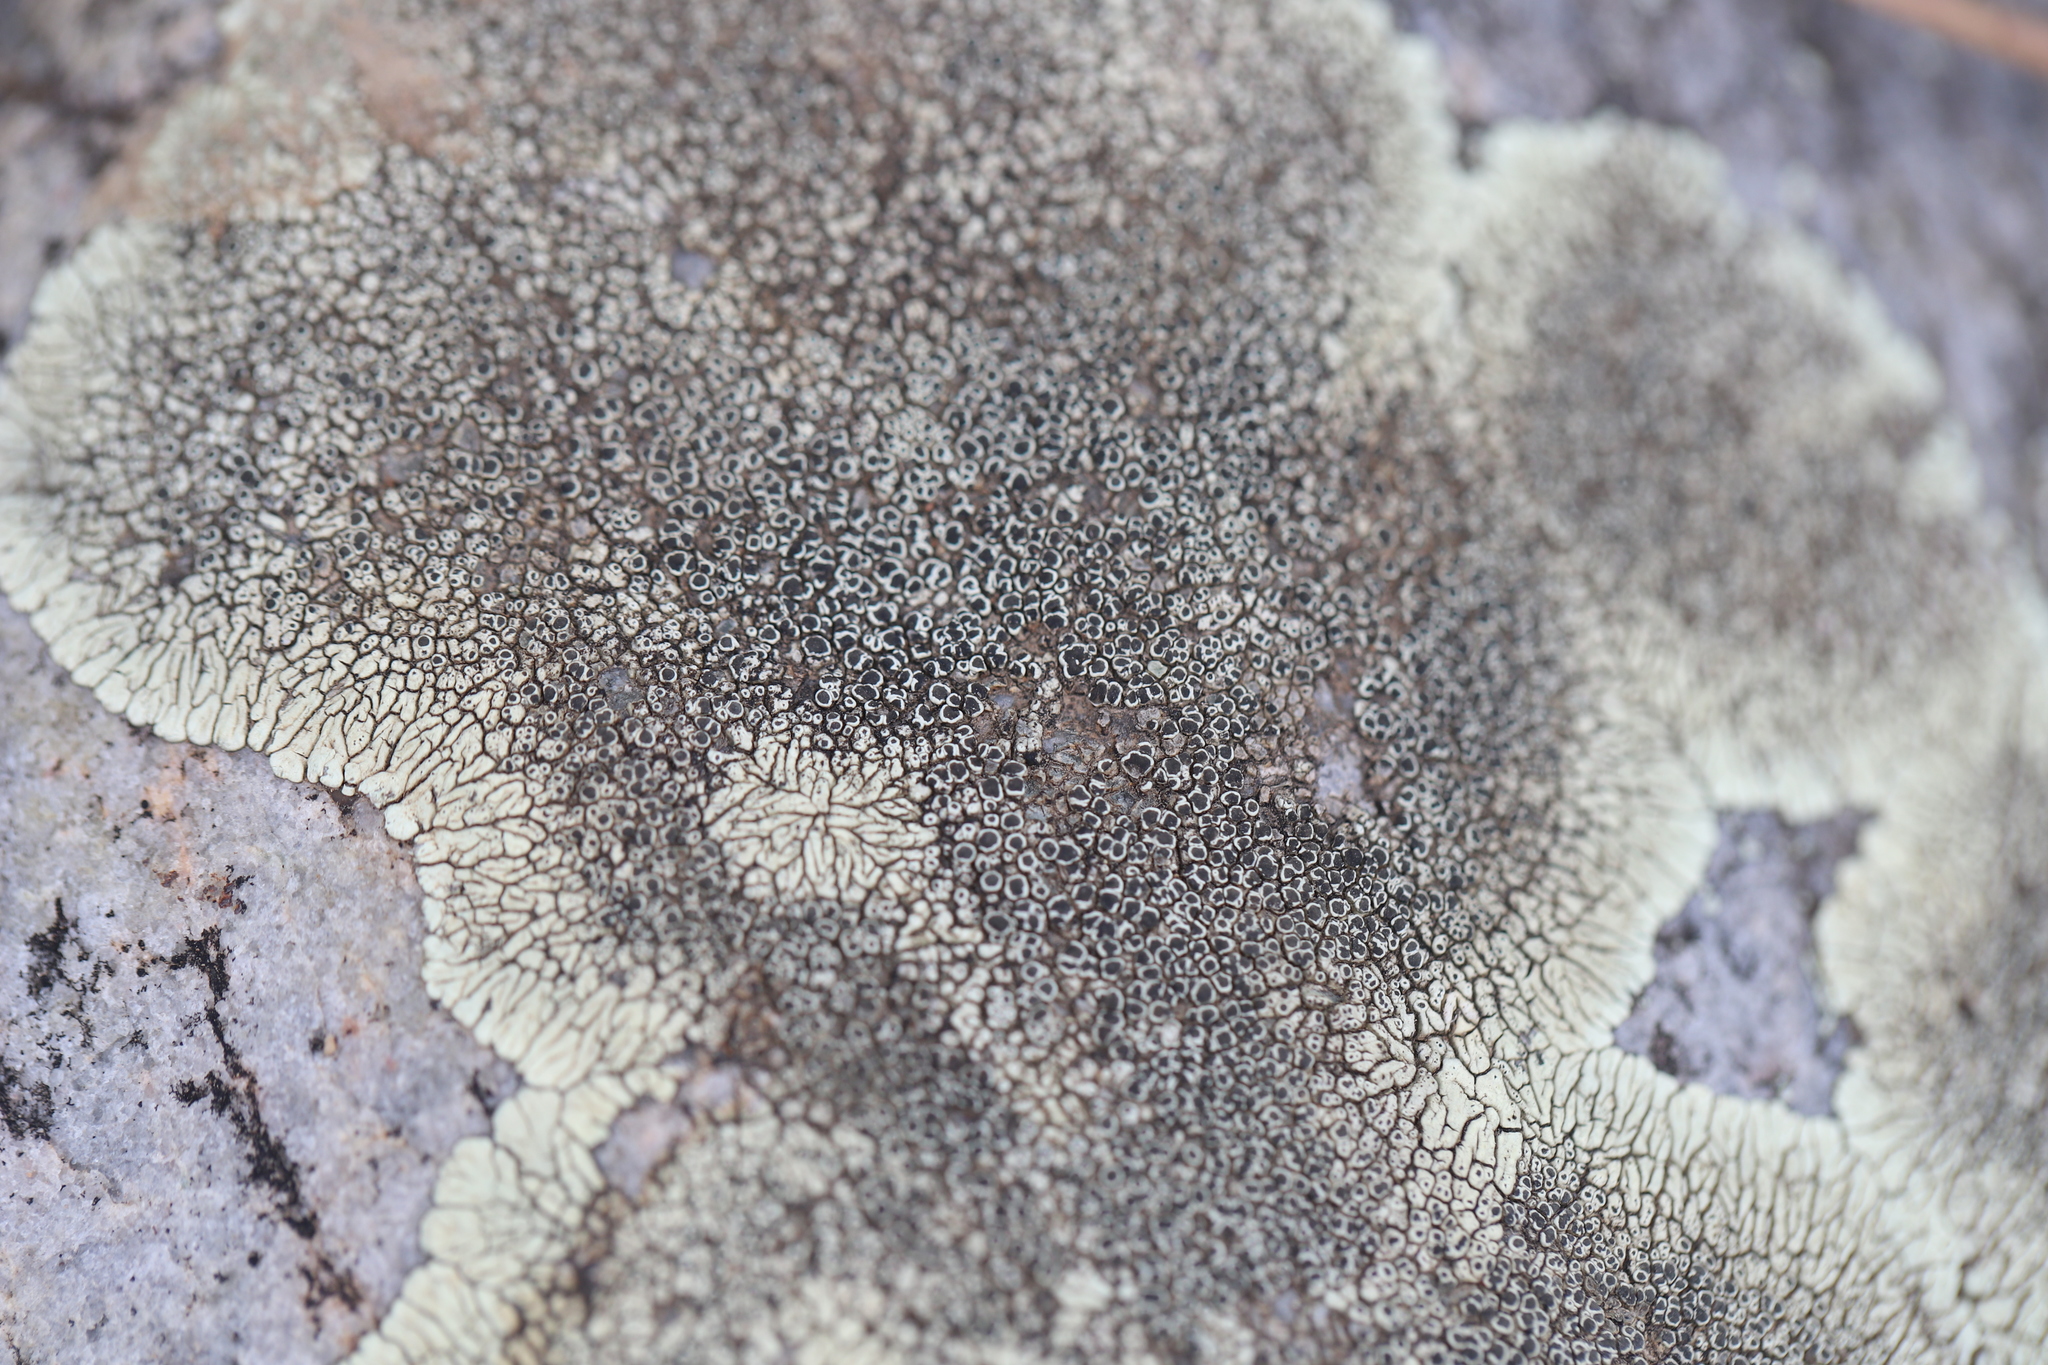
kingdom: Fungi
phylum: Ascomycota
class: Lecanoromycetes
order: Caliciales
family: Caliciaceae
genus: Dimelaena
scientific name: Dimelaena oreina
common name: Golden moonglow lichen
